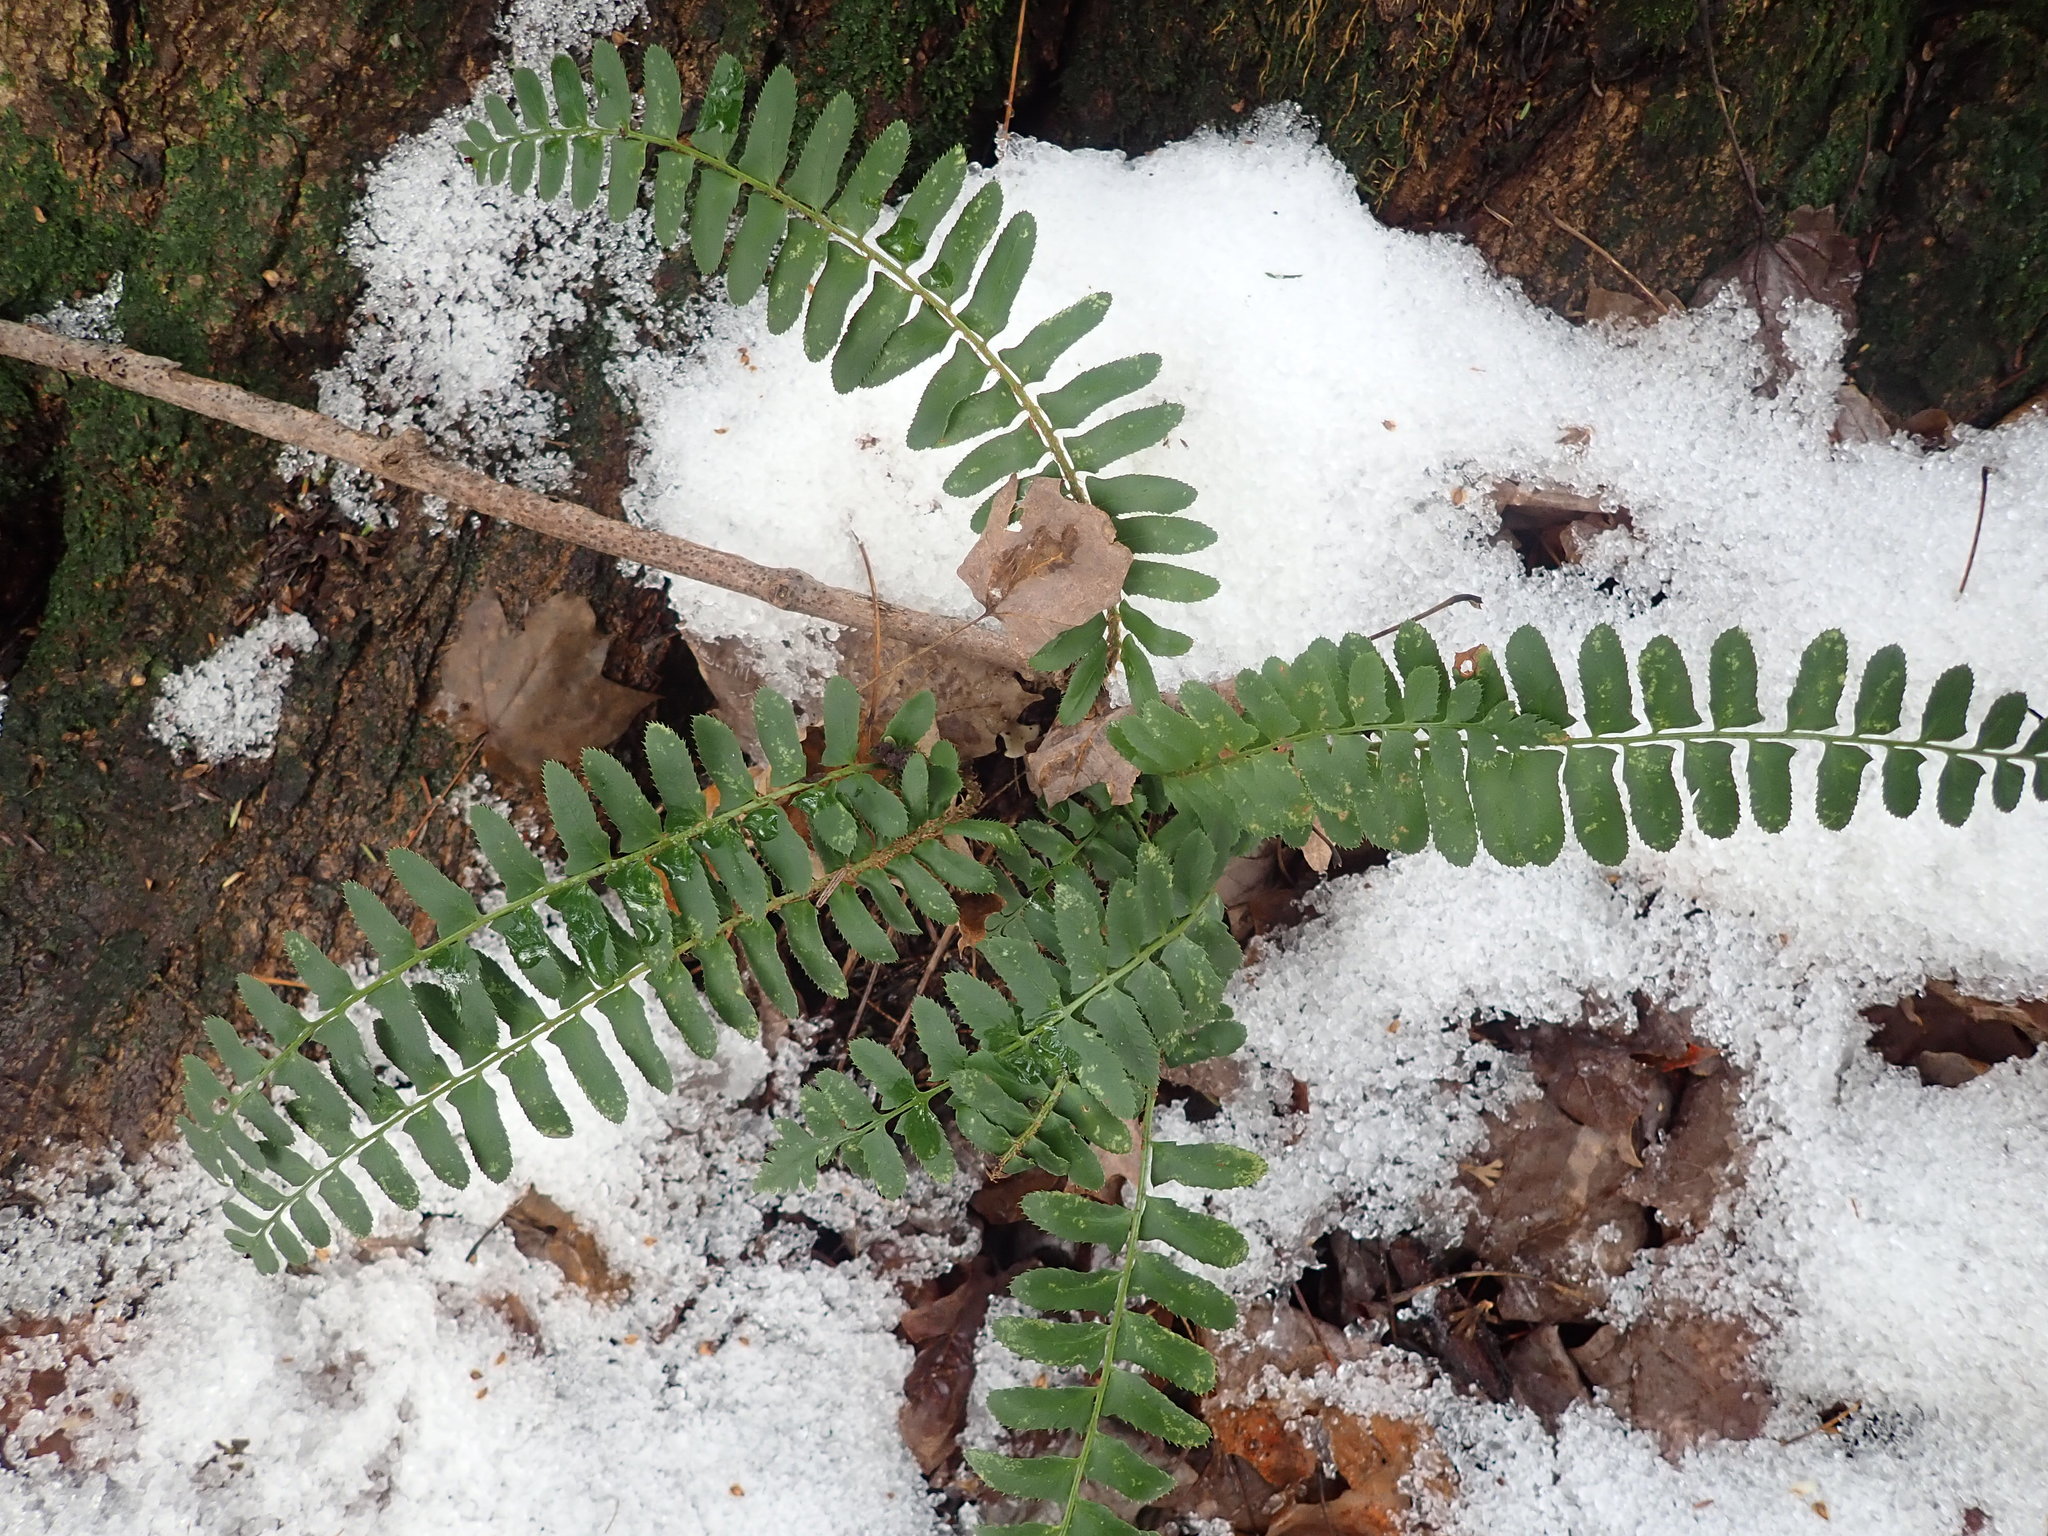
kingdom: Plantae
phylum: Tracheophyta
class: Polypodiopsida
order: Polypodiales
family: Dryopteridaceae
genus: Polystichum
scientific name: Polystichum acrostichoides
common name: Christmas fern
